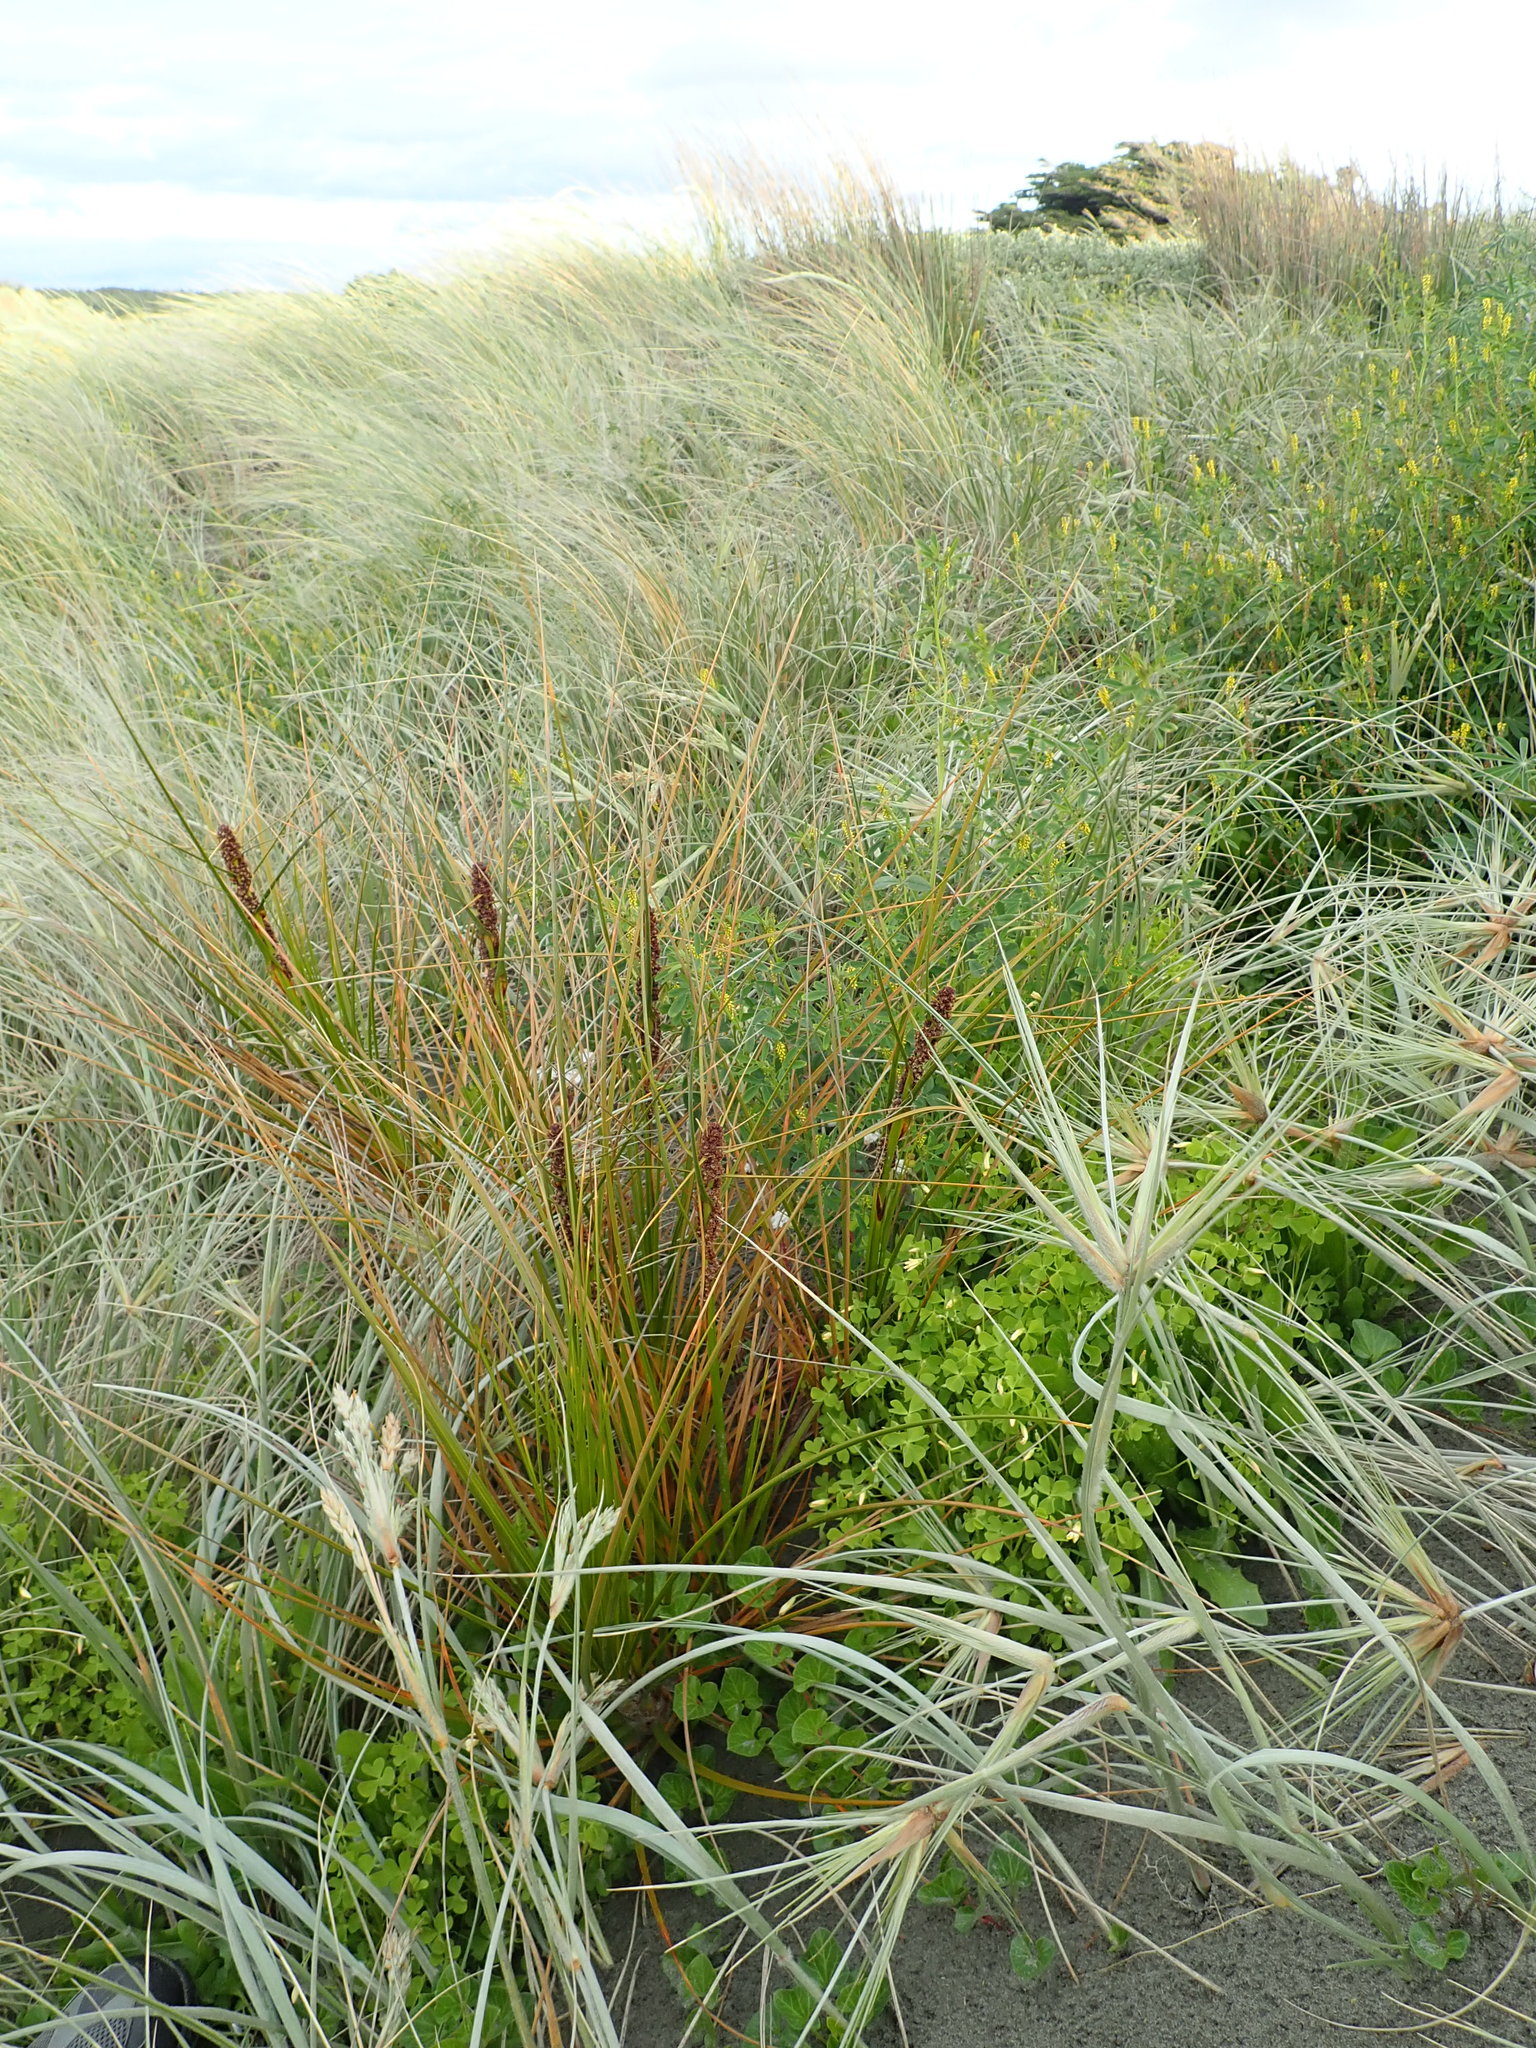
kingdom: Plantae
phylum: Tracheophyta
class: Magnoliopsida
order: Oxalidales
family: Oxalidaceae
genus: Oxalis
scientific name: Oxalis corniculata
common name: Procumbent yellow-sorrel
